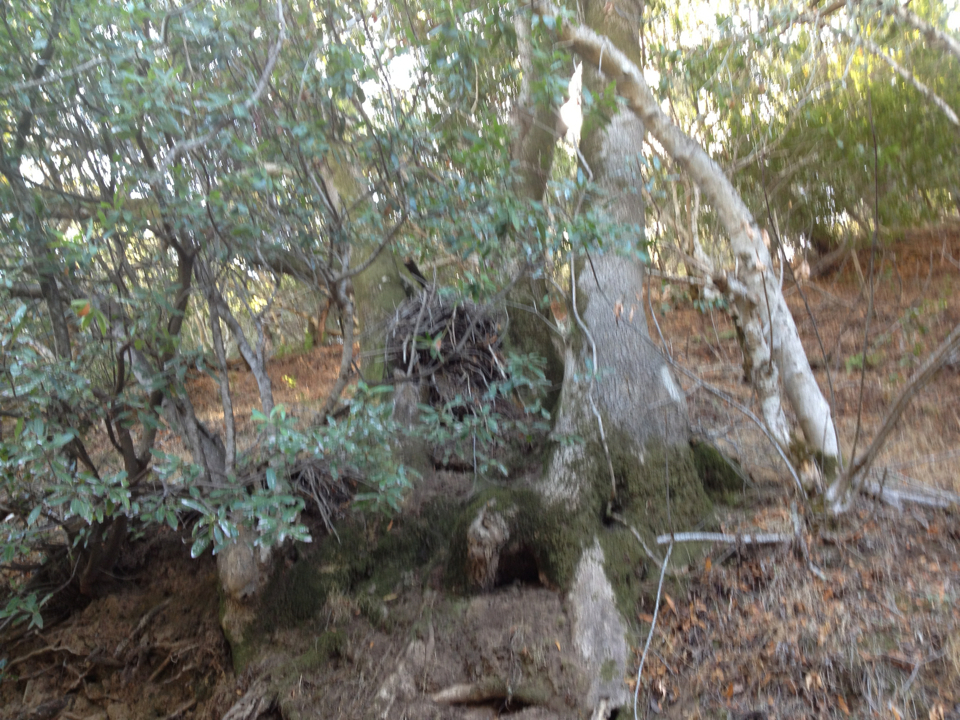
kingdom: Animalia
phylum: Chordata
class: Mammalia
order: Rodentia
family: Cricetidae
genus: Neotoma
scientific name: Neotoma fuscipes
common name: Dusky-footed woodrat
